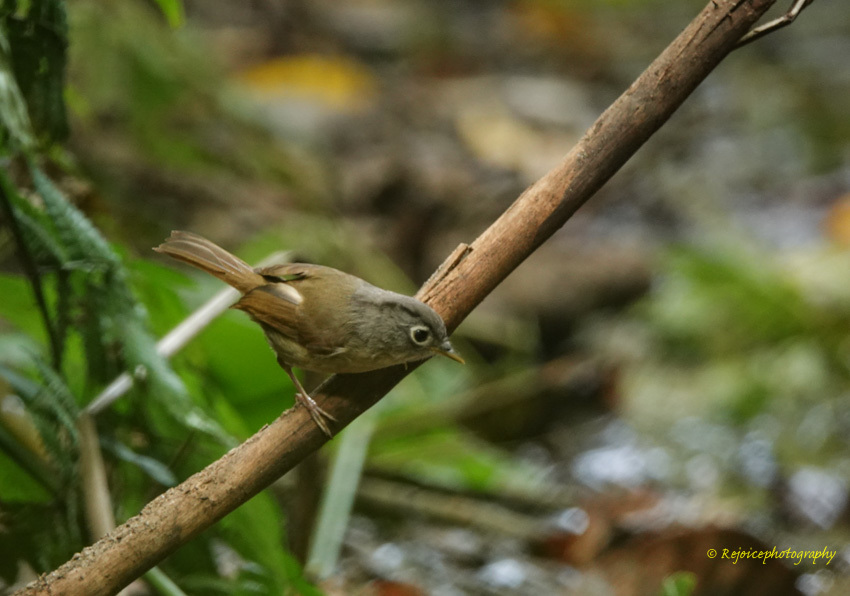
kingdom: Animalia
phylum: Chordata
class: Aves
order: Passeriformes
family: Pellorneidae
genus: Alcippe
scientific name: Alcippe nipalensis
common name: Nepal fulvetta
